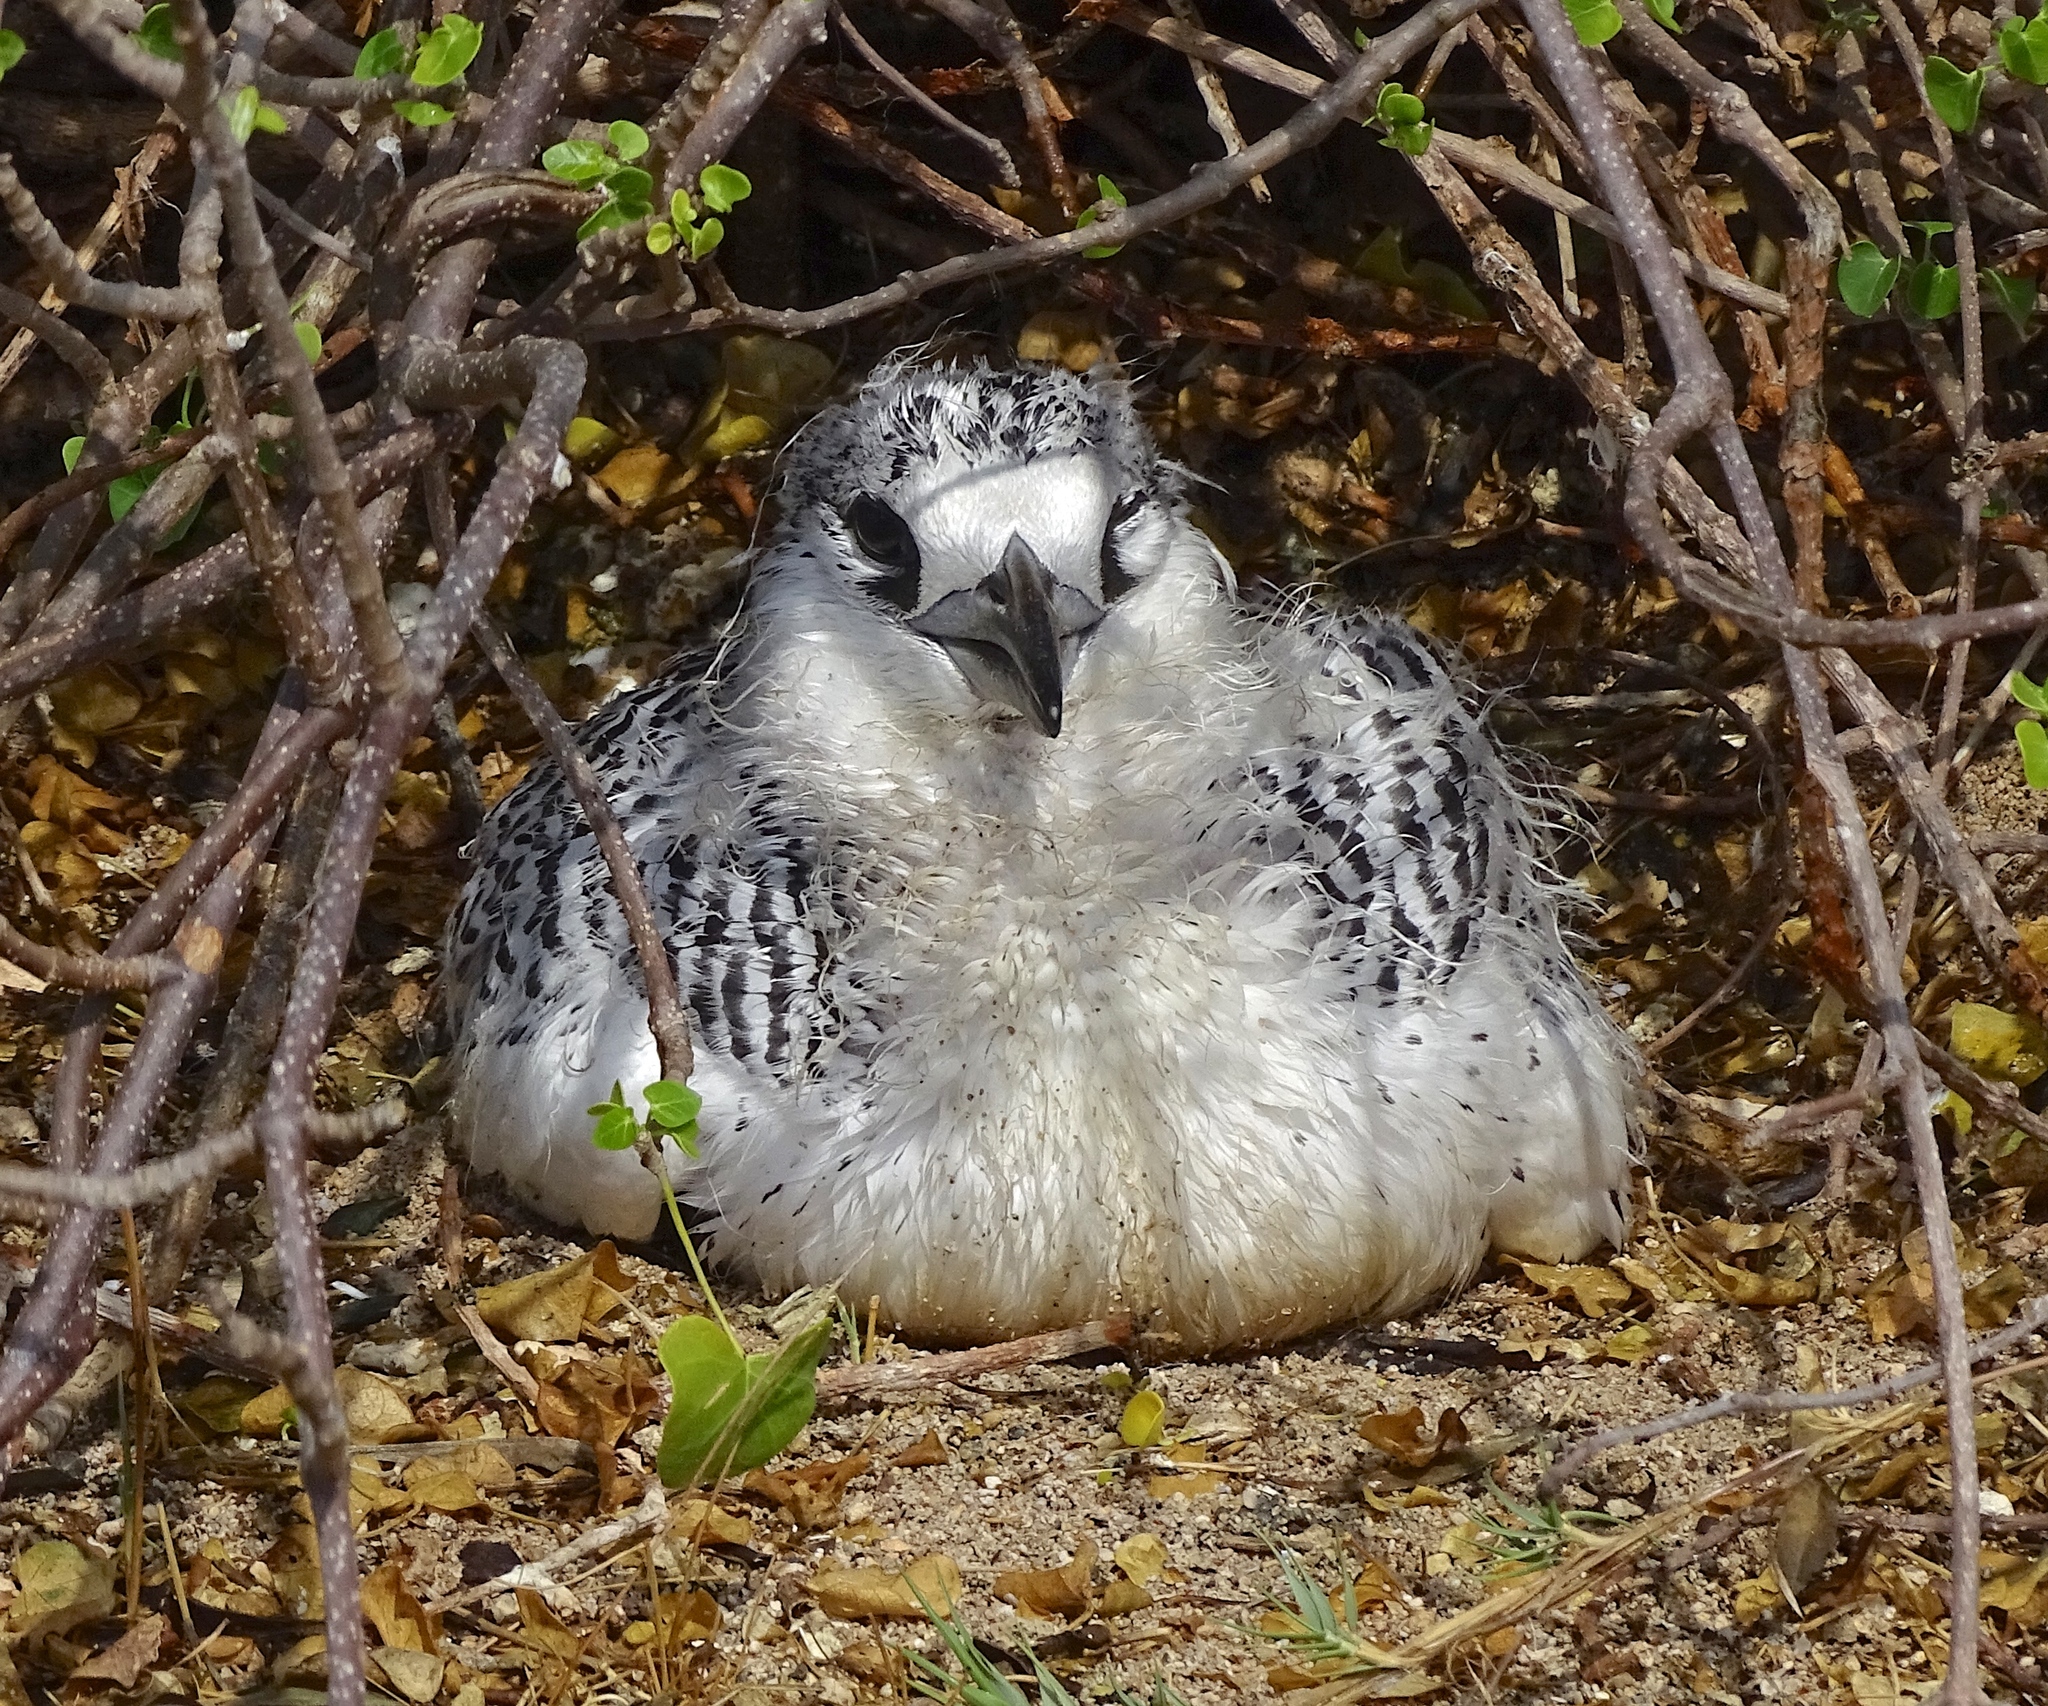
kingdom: Animalia
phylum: Chordata
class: Aves
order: Phaethontiformes
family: Phaethontidae
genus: Phaethon
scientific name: Phaethon rubricauda
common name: Red-tailed tropicbird
